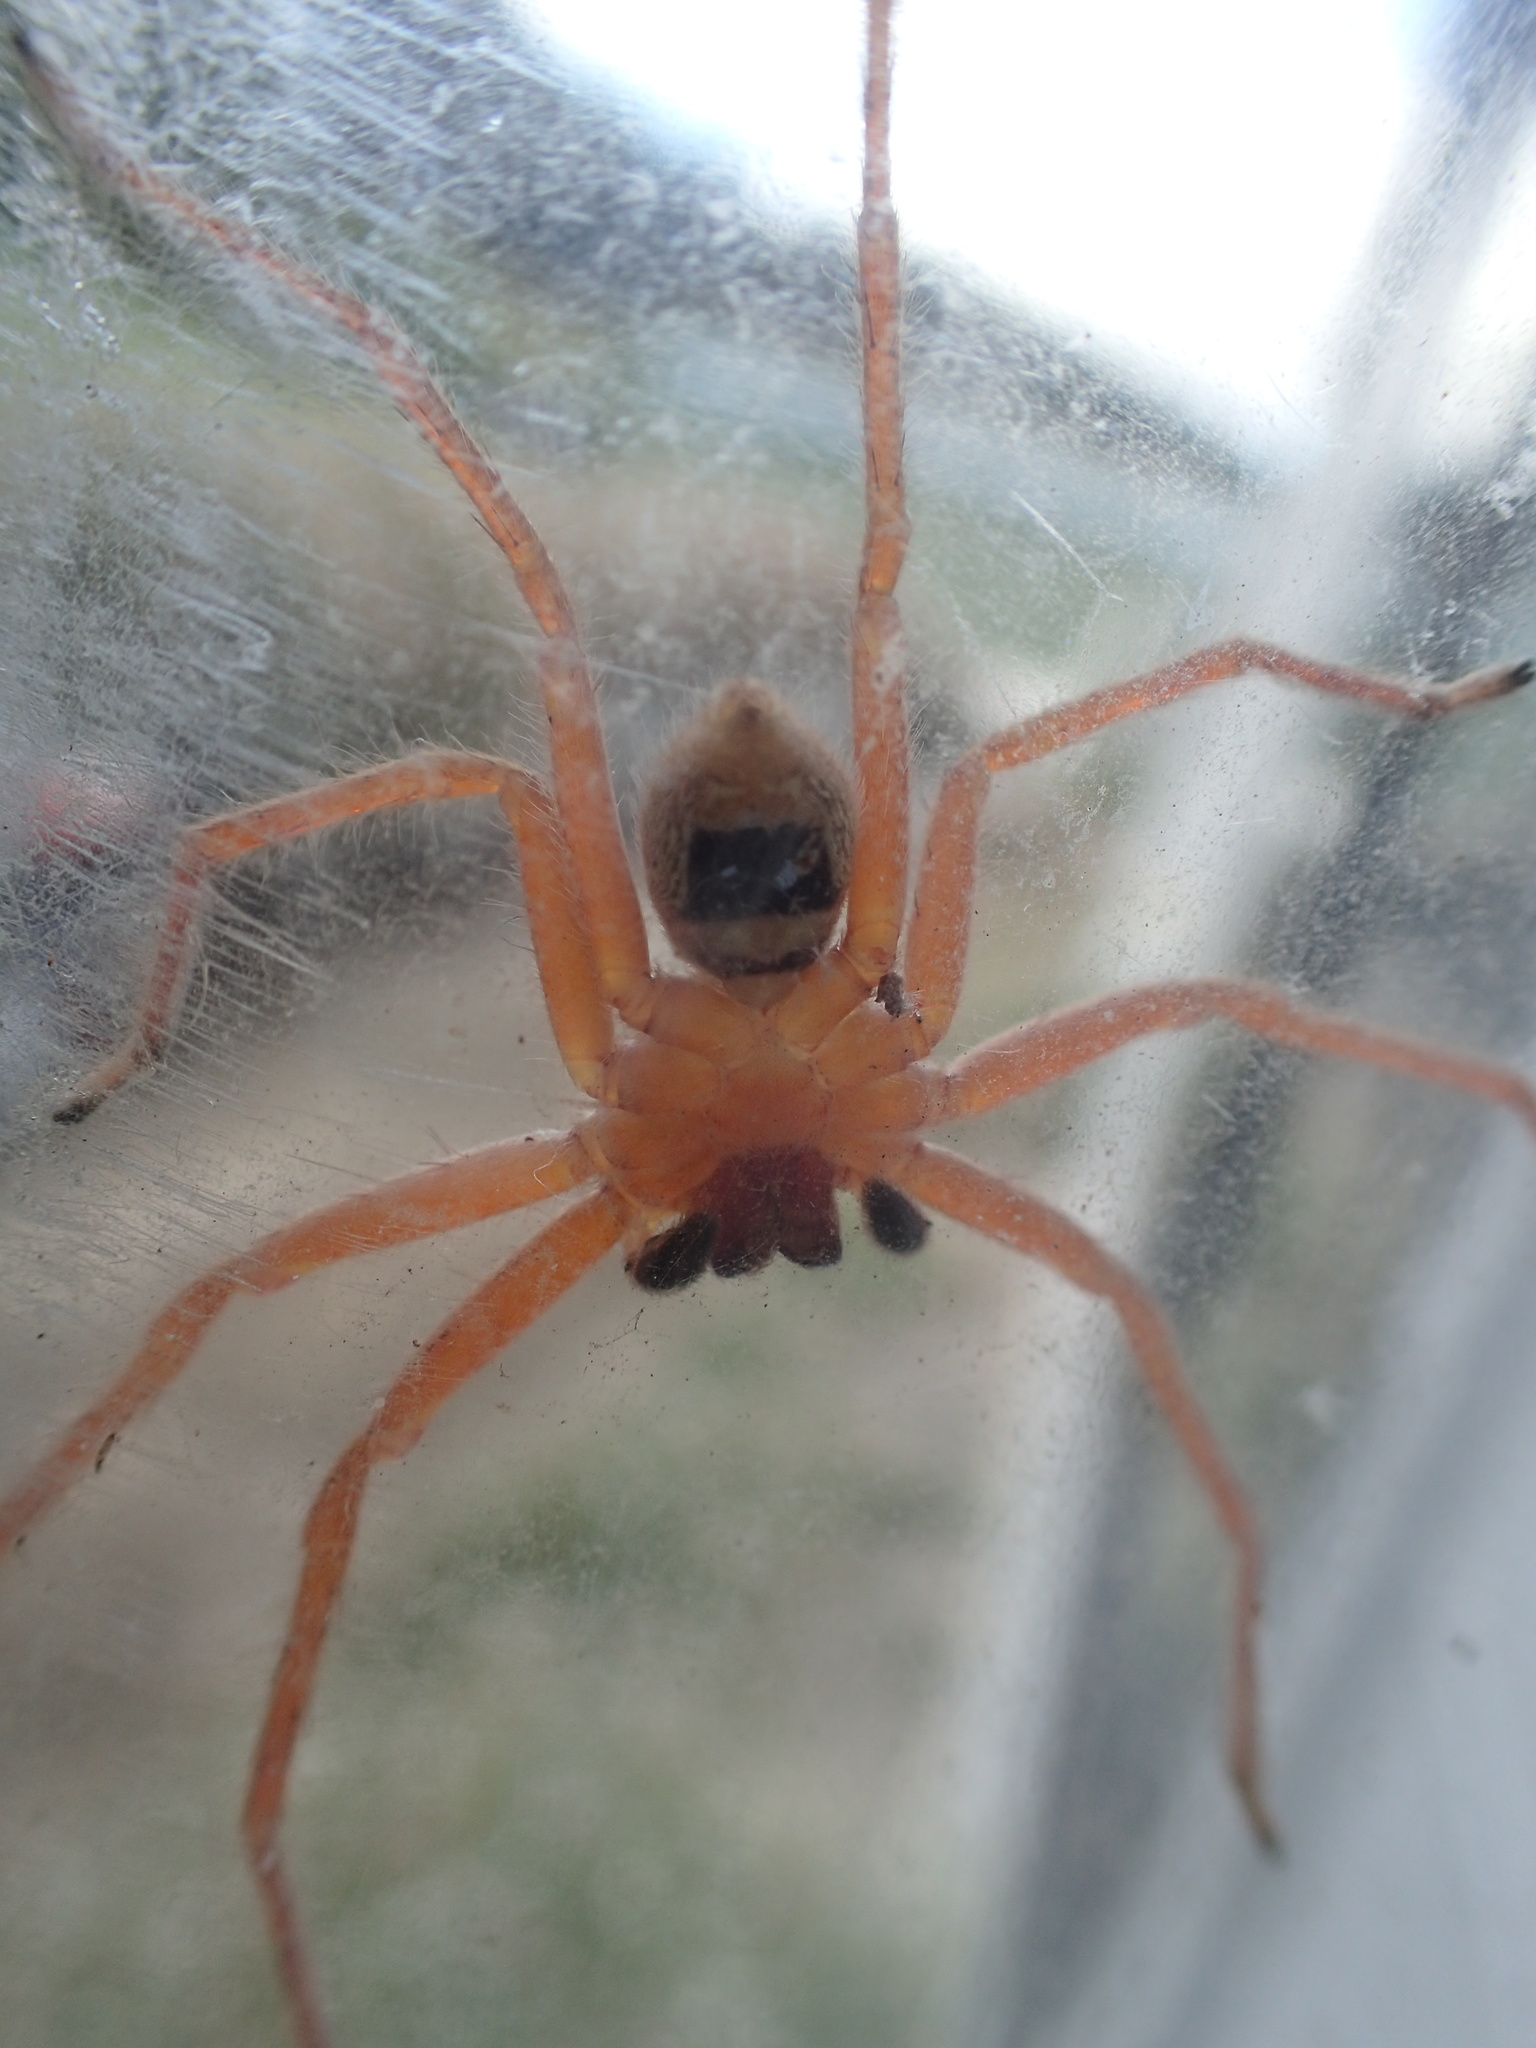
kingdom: Animalia
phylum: Arthropoda
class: Arachnida
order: Araneae
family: Sparassidae
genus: Neosparassus
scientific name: Neosparassus diana
